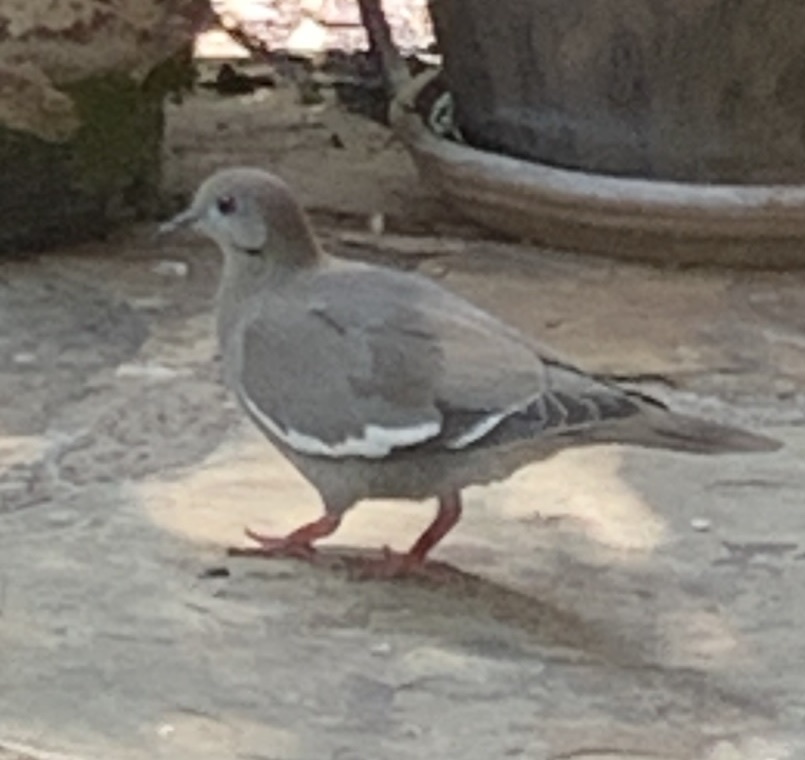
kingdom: Animalia
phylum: Chordata
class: Aves
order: Columbiformes
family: Columbidae
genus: Zenaida
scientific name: Zenaida asiatica
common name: White-winged dove
